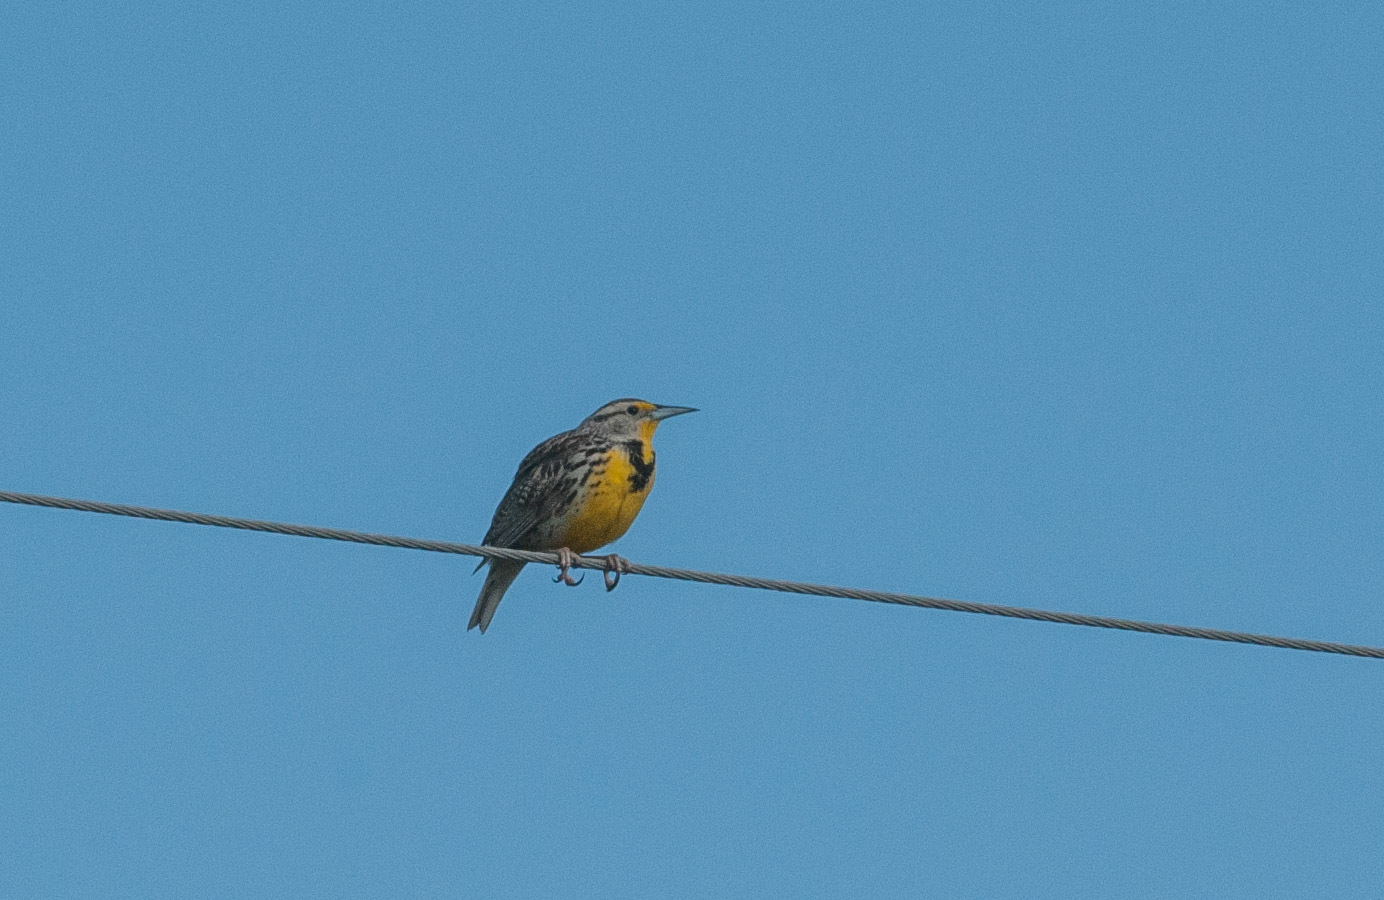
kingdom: Animalia
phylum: Chordata
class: Aves
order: Passeriformes
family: Icteridae
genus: Sturnella
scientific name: Sturnella neglecta
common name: Western meadowlark
